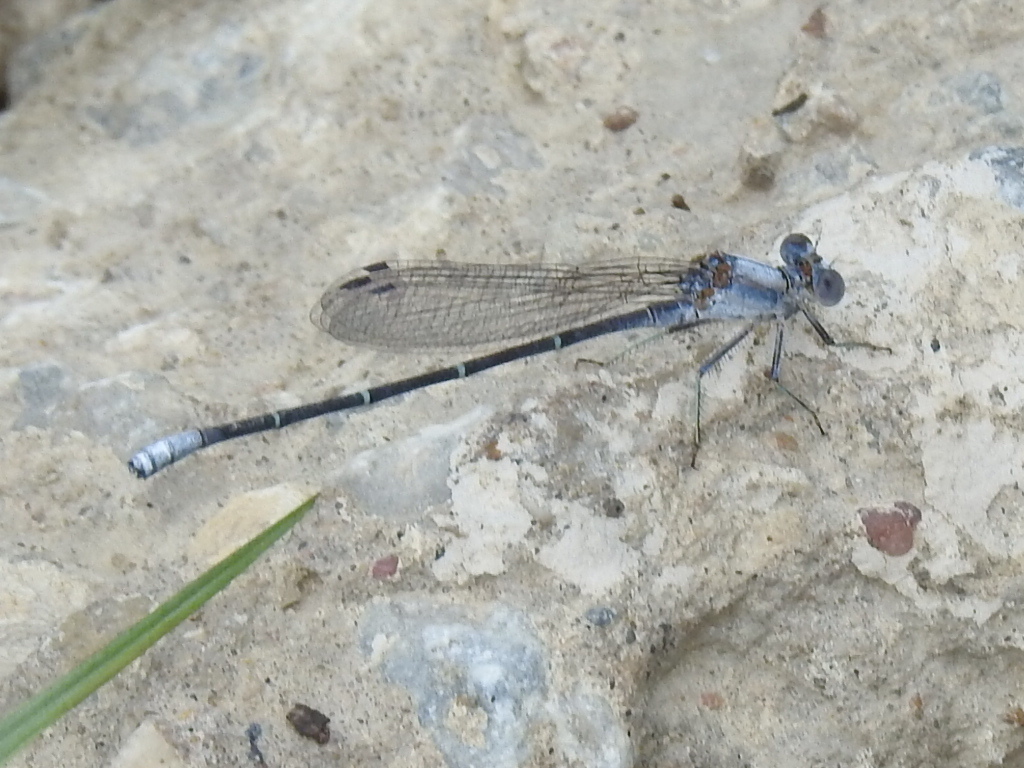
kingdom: Animalia
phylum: Arthropoda
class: Insecta
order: Odonata
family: Coenagrionidae
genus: Argia
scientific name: Argia moesta
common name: Powdered dancer
